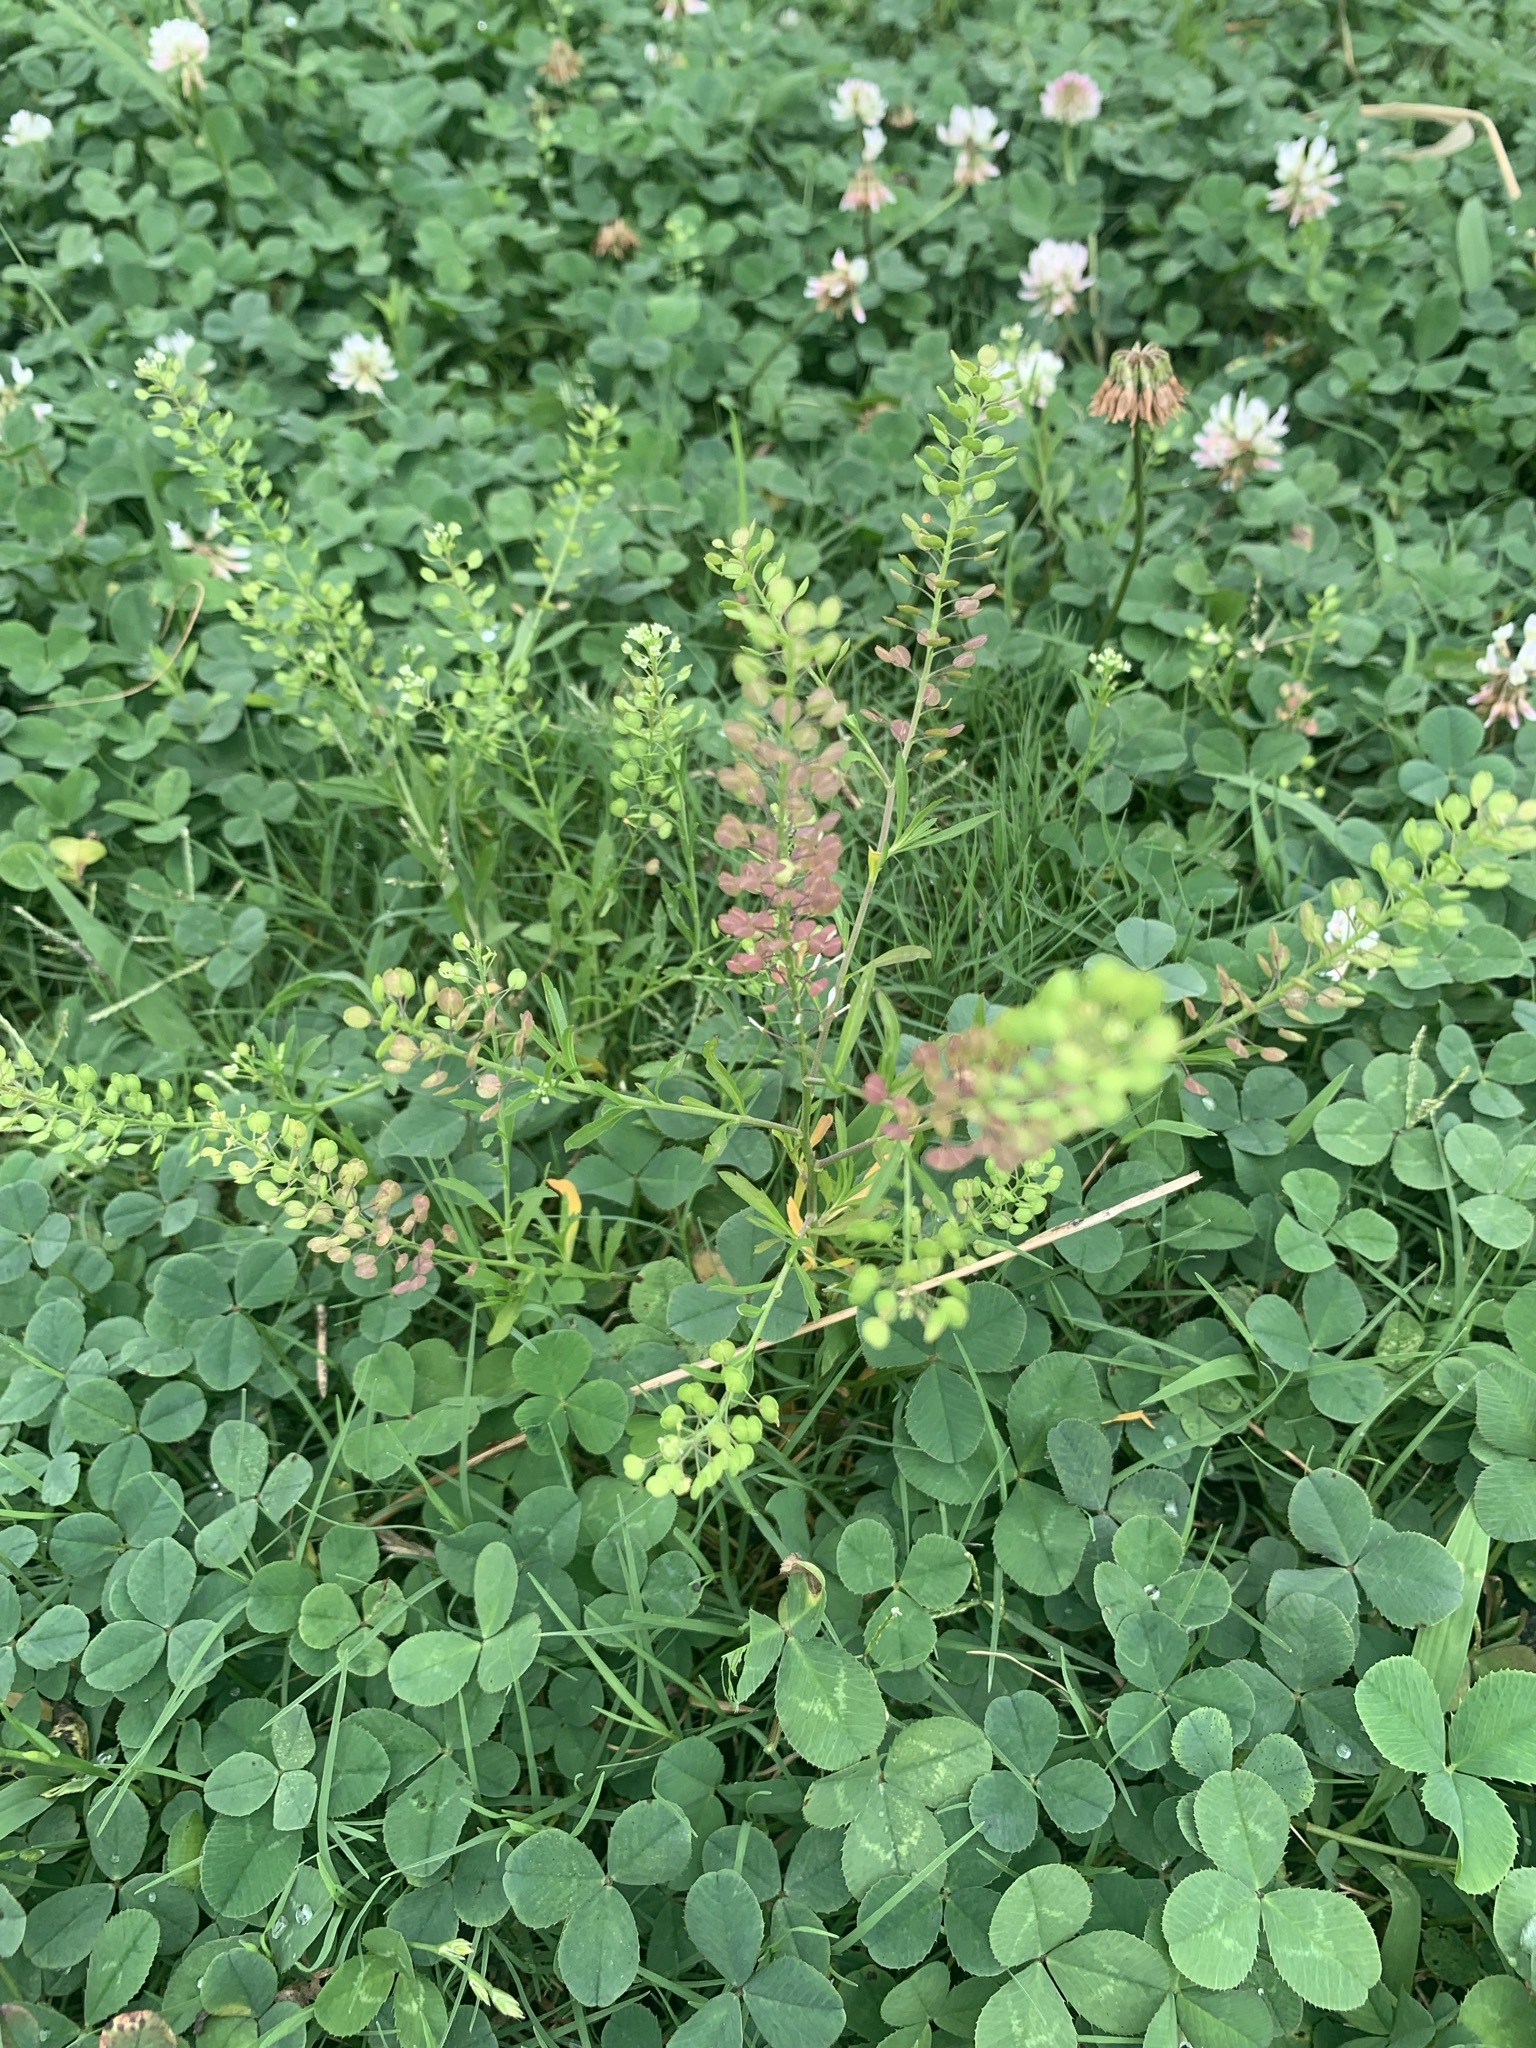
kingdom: Plantae
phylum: Tracheophyta
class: Magnoliopsida
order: Brassicales
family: Brassicaceae
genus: Lepidium
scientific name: Lepidium virginicum
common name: Least pepperwort
